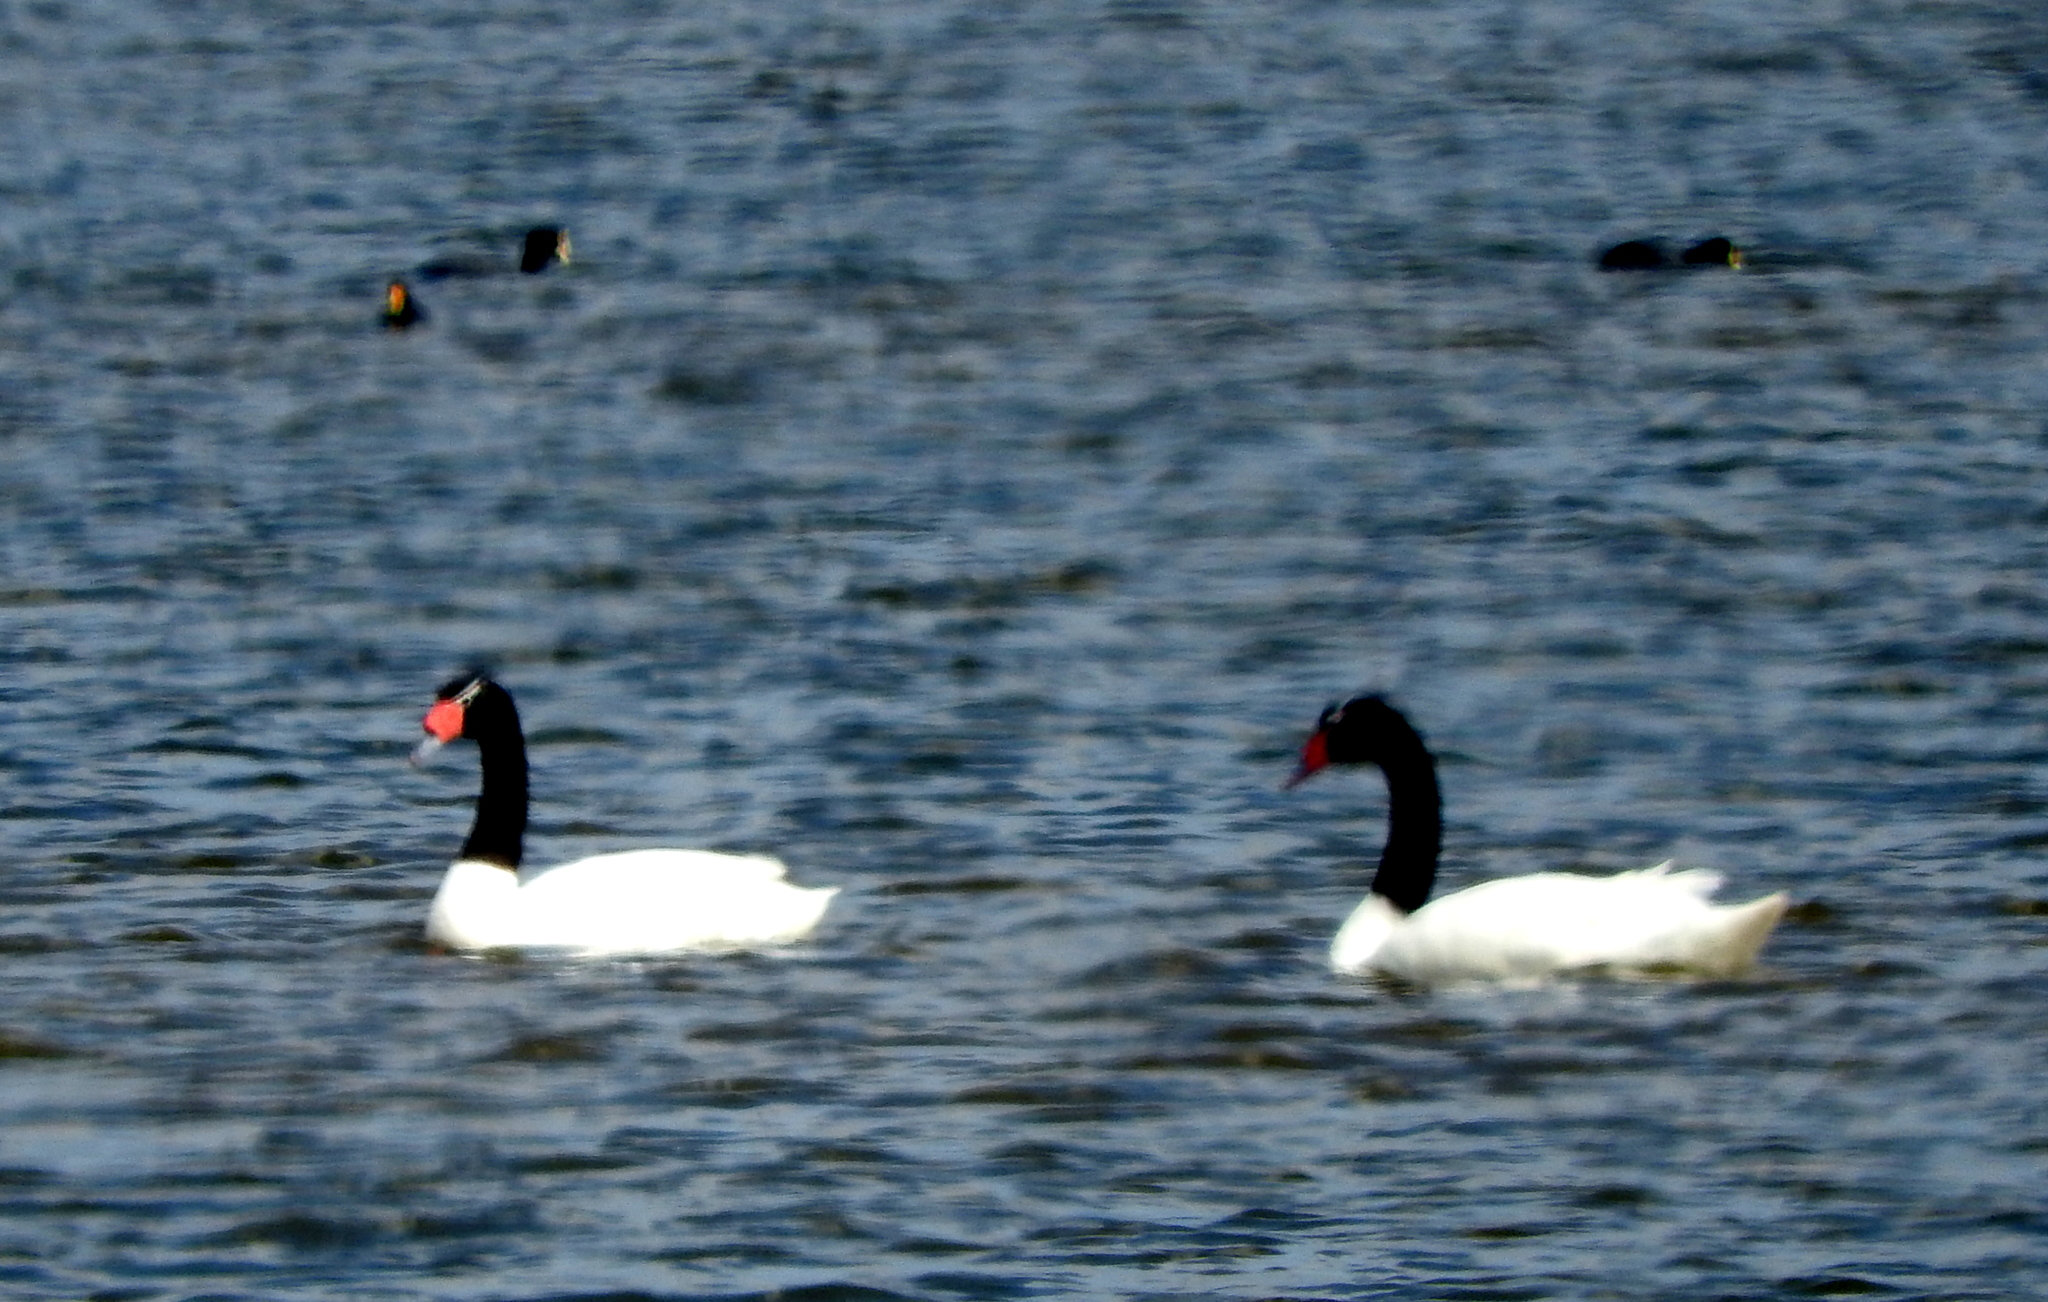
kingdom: Animalia
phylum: Chordata
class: Aves
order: Anseriformes
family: Anatidae
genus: Cygnus
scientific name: Cygnus melancoryphus
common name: Black-necked swan
